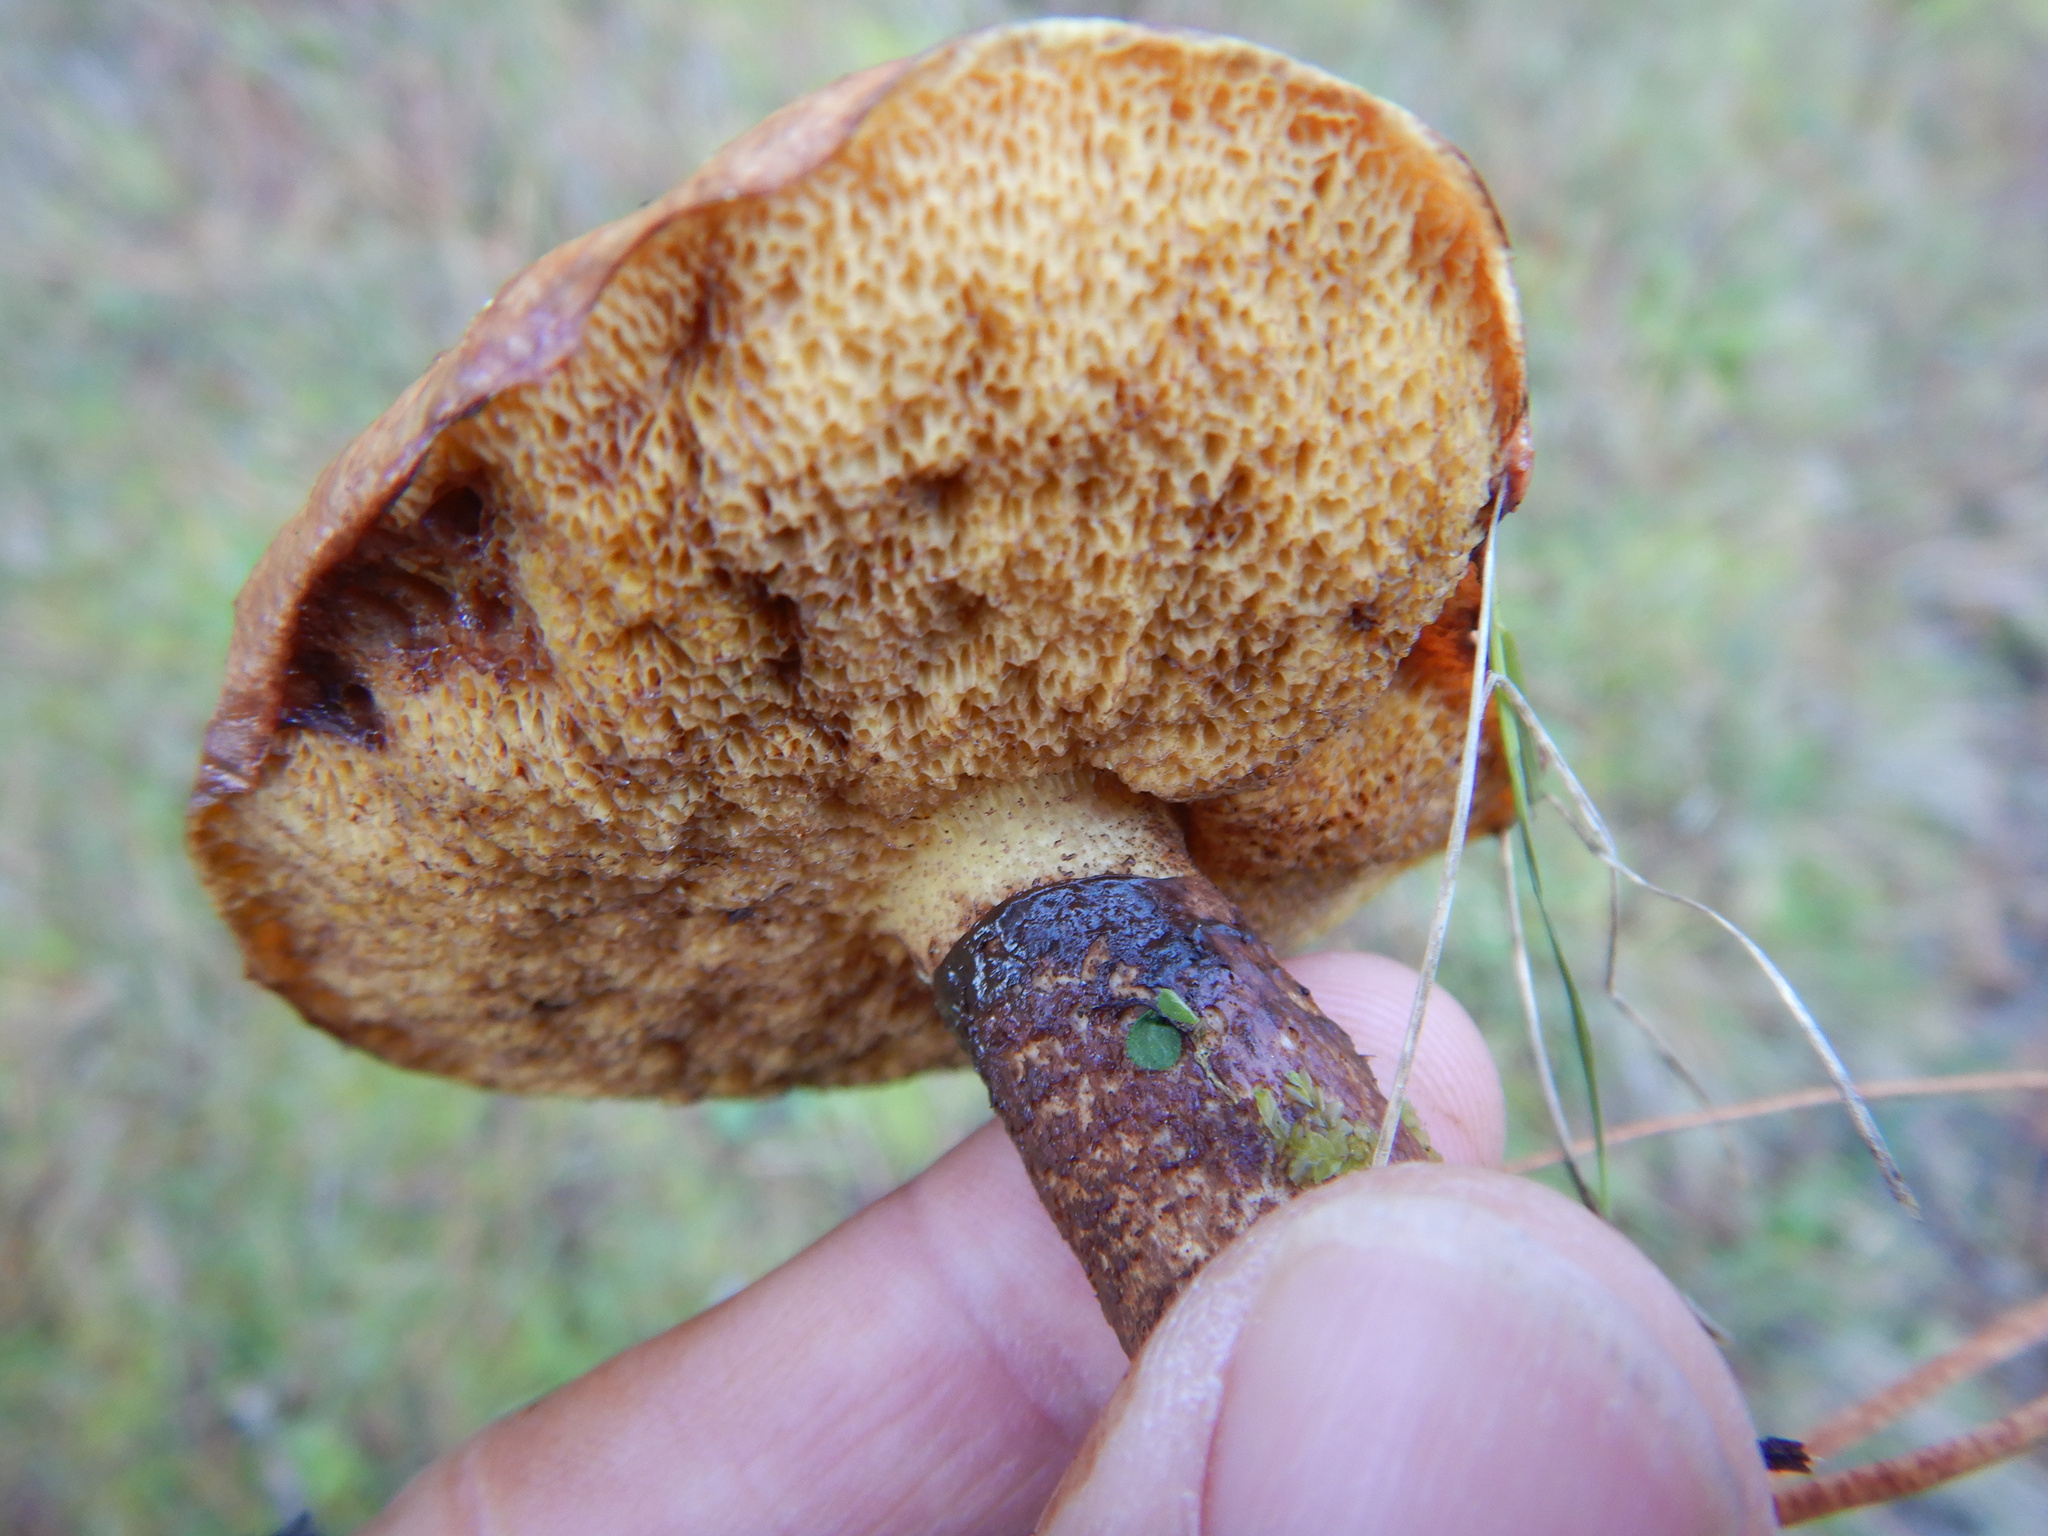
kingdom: Fungi
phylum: Basidiomycota
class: Agaricomycetes
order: Boletales
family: Suillaceae
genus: Suillus
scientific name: Suillus luteus
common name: Slippery jack
